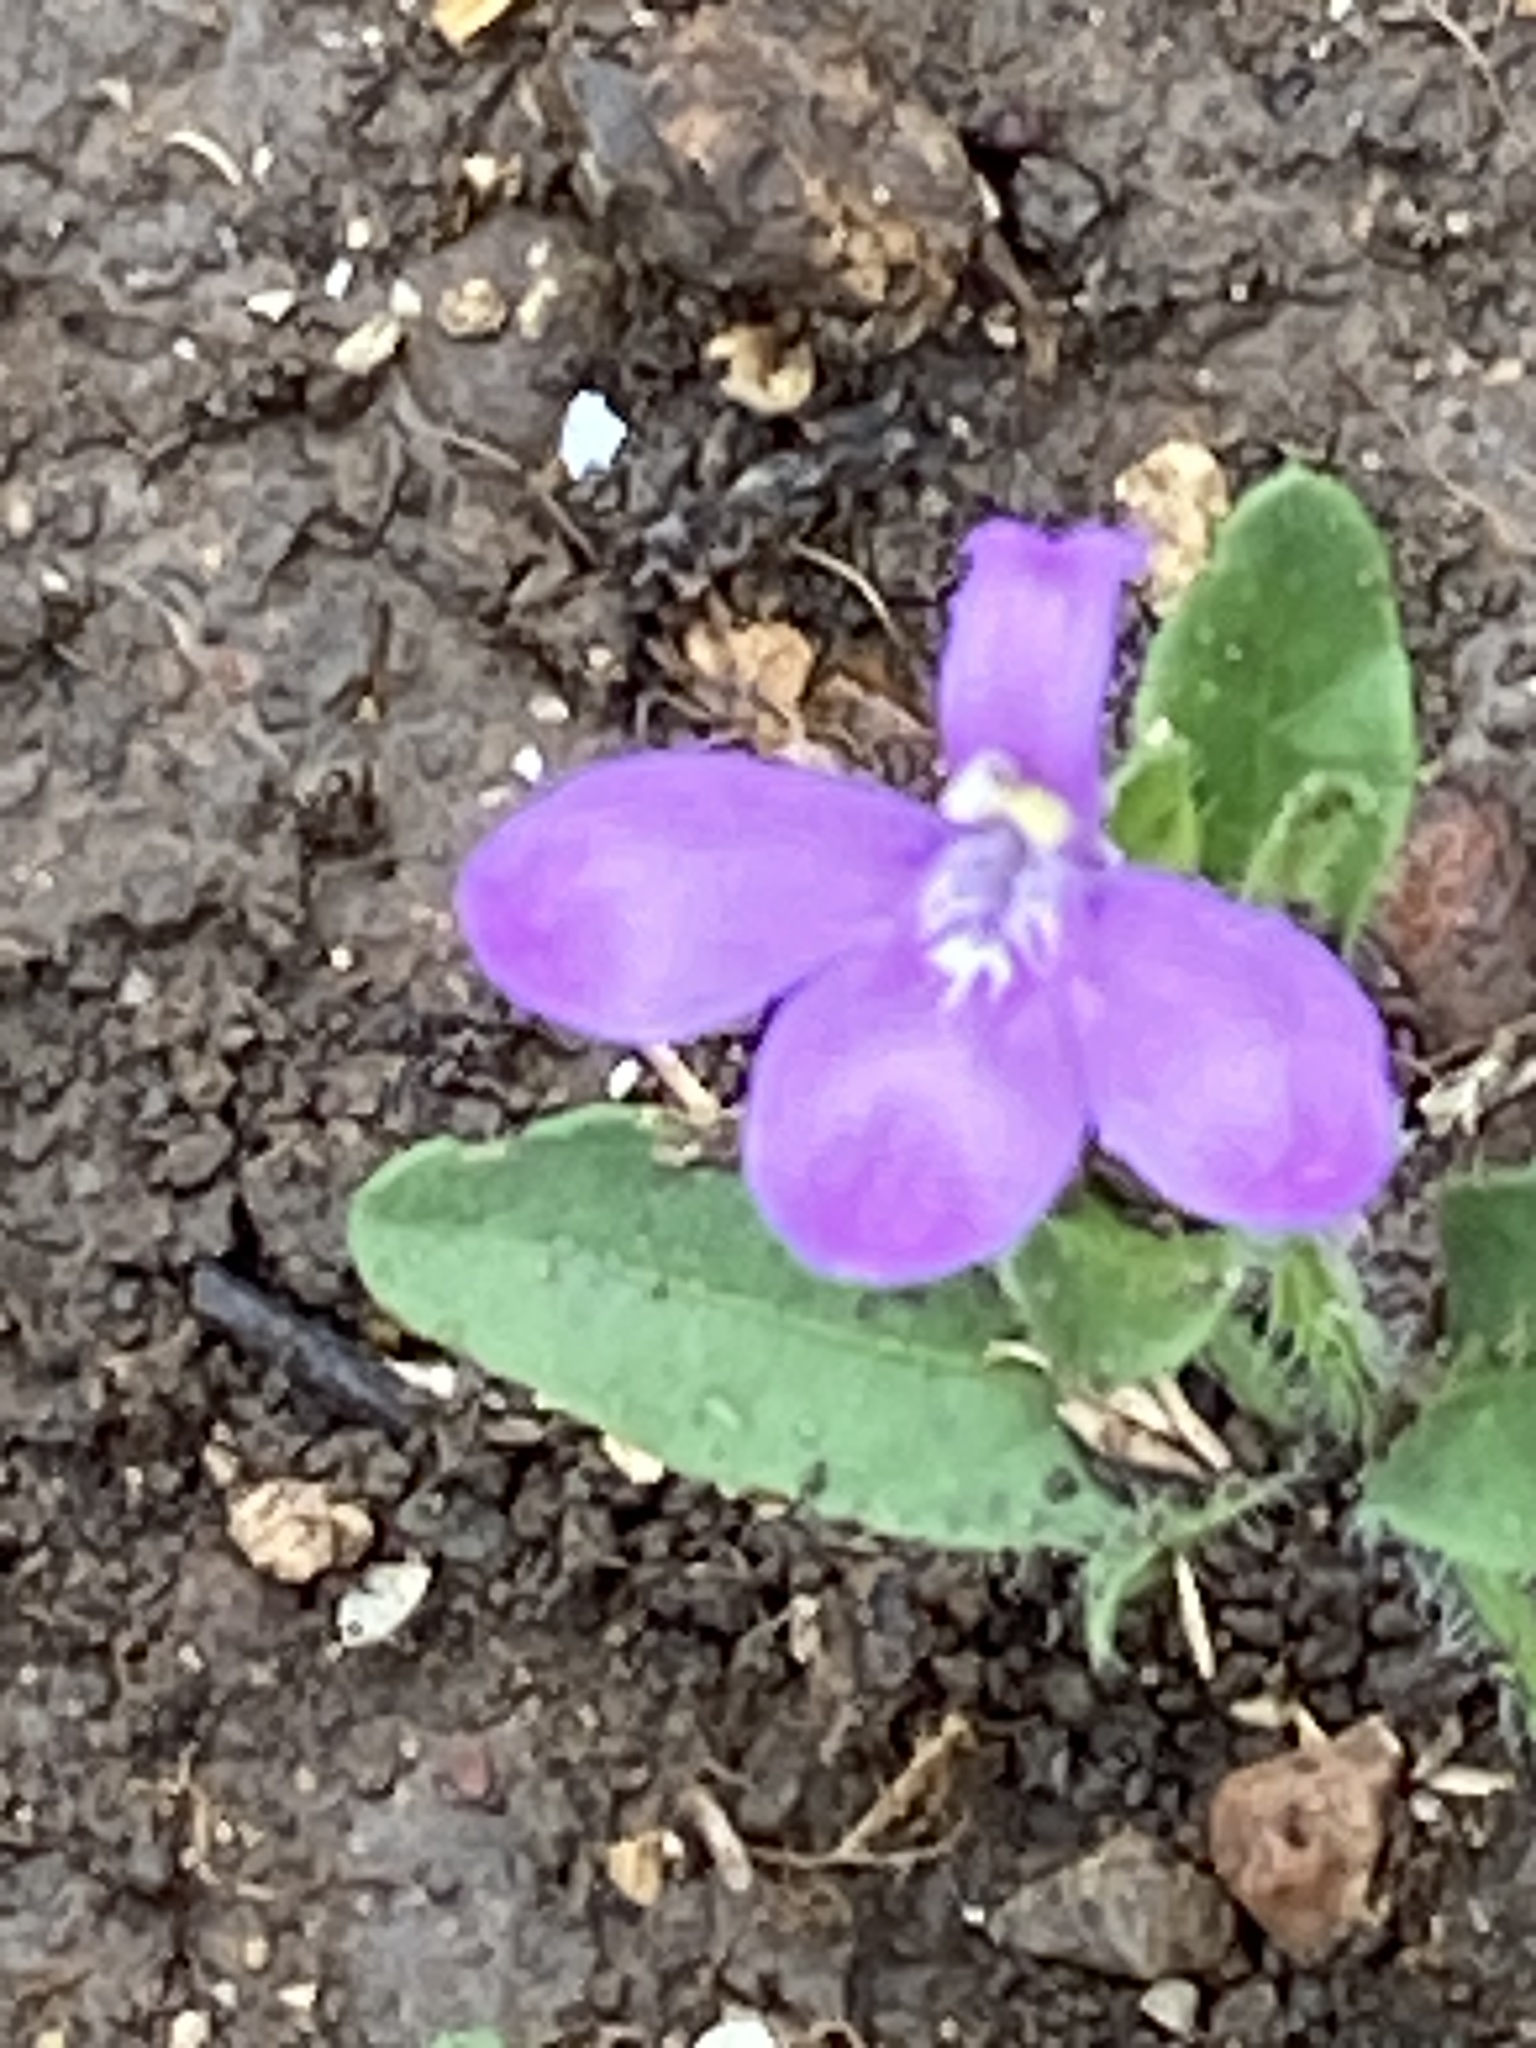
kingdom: Plantae
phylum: Tracheophyta
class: Magnoliopsida
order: Lamiales
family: Acanthaceae
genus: Justicia
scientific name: Justicia pilosella
